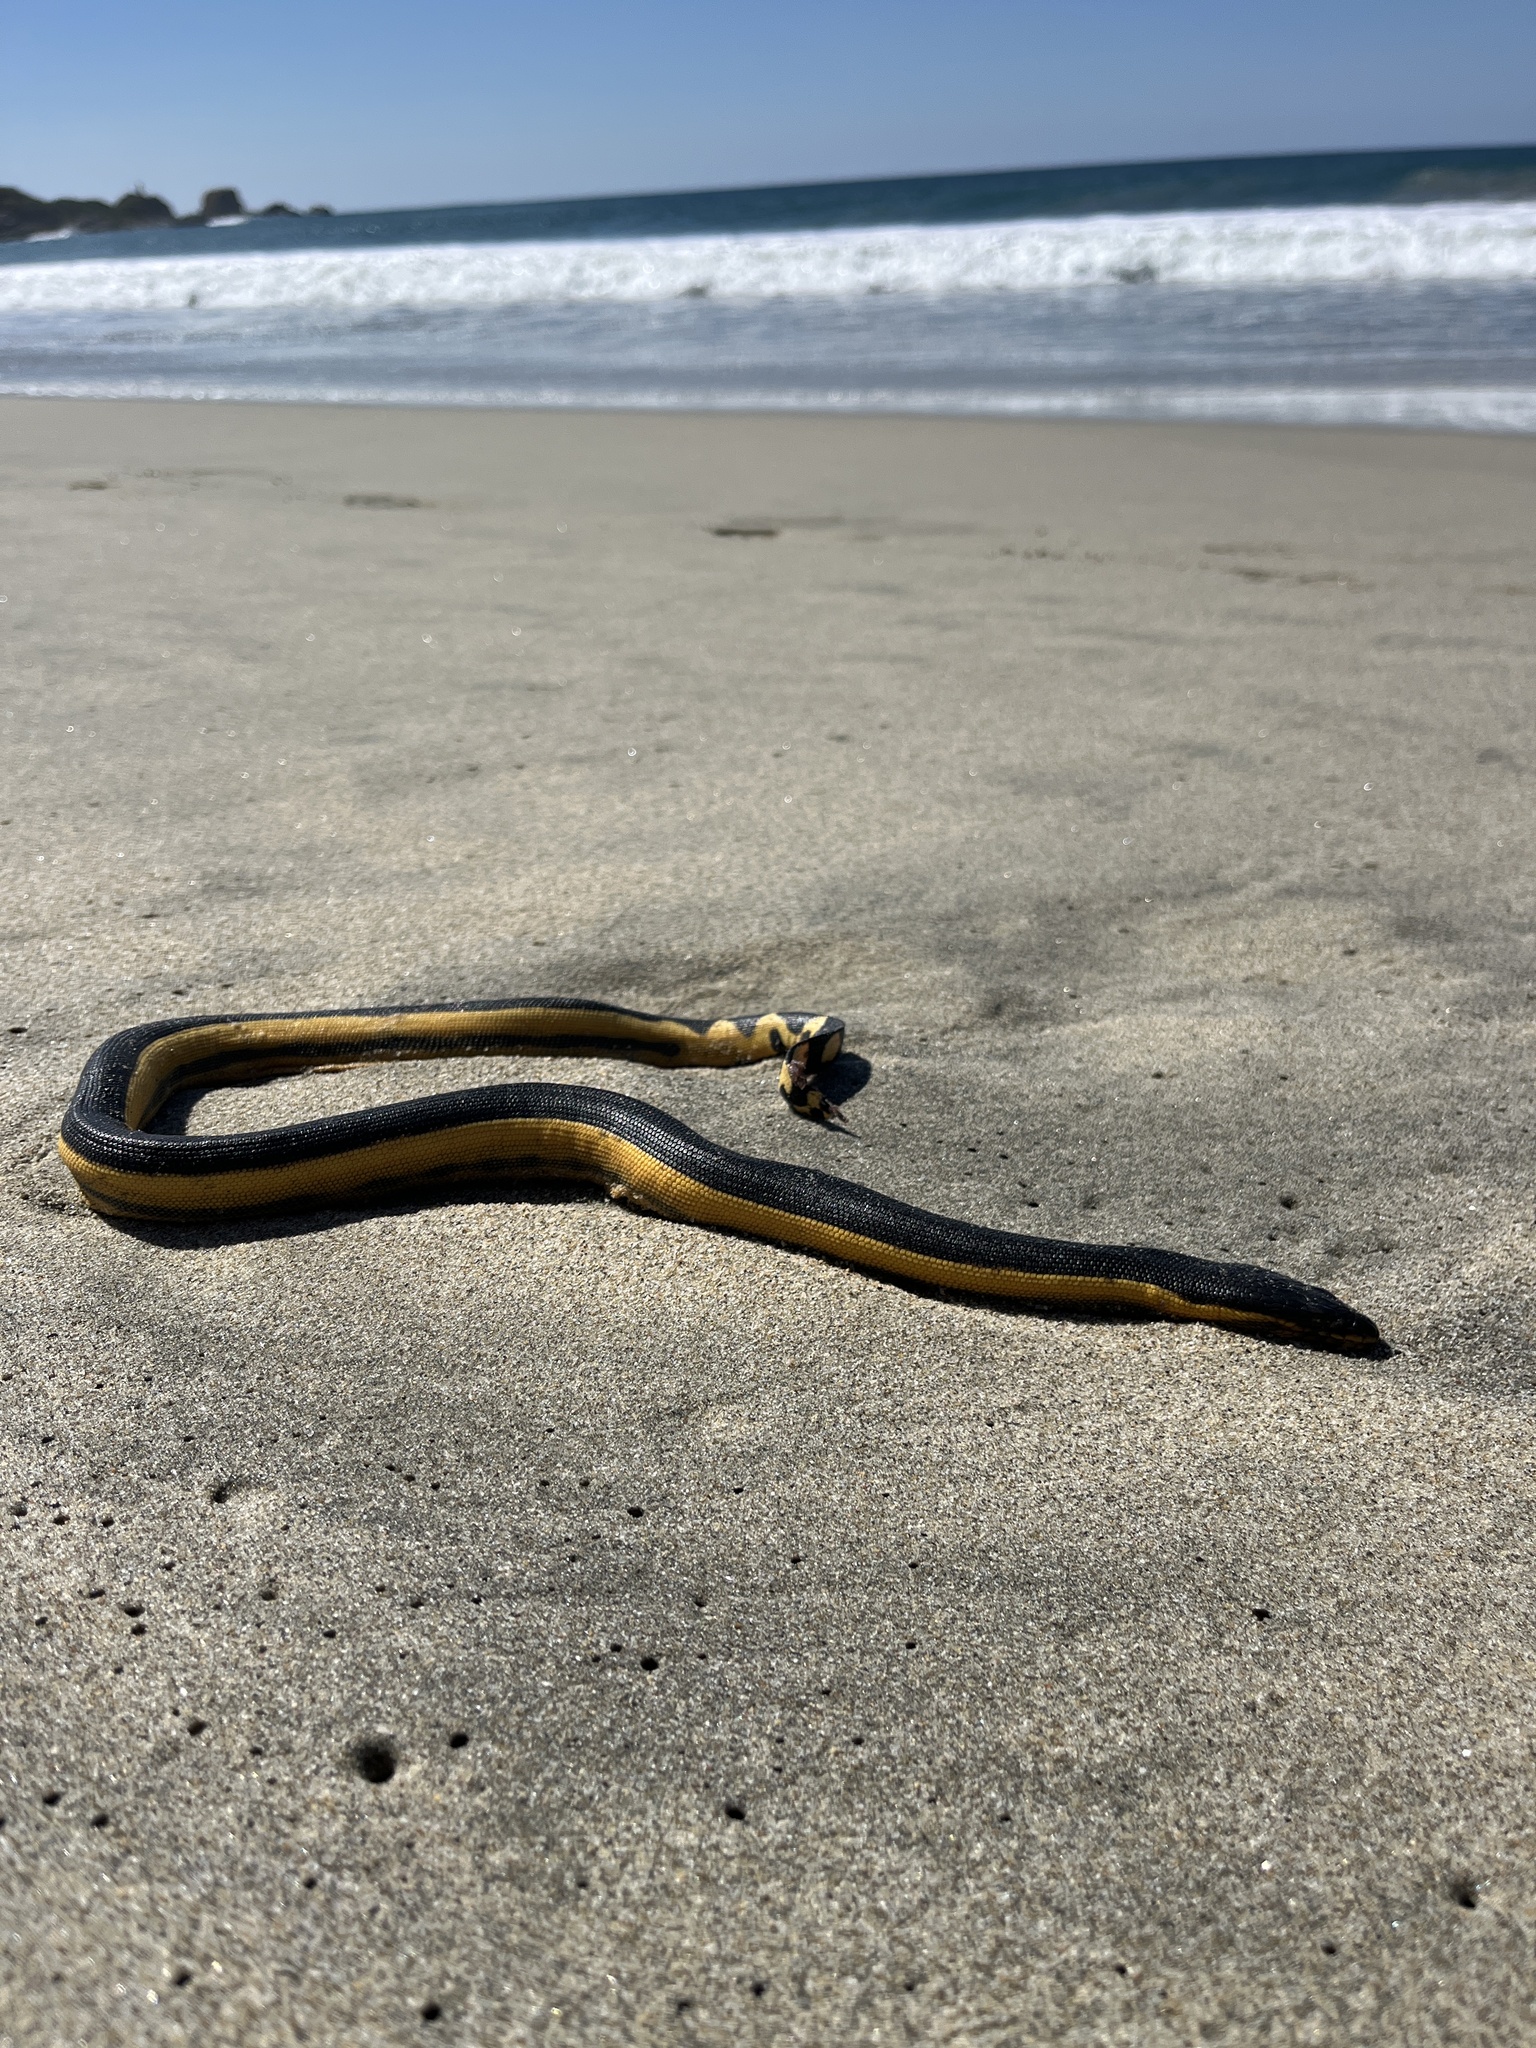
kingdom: Animalia
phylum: Chordata
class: Squamata
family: Elapidae
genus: Hydrophis
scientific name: Hydrophis platurus
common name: Pelagic sea snake
